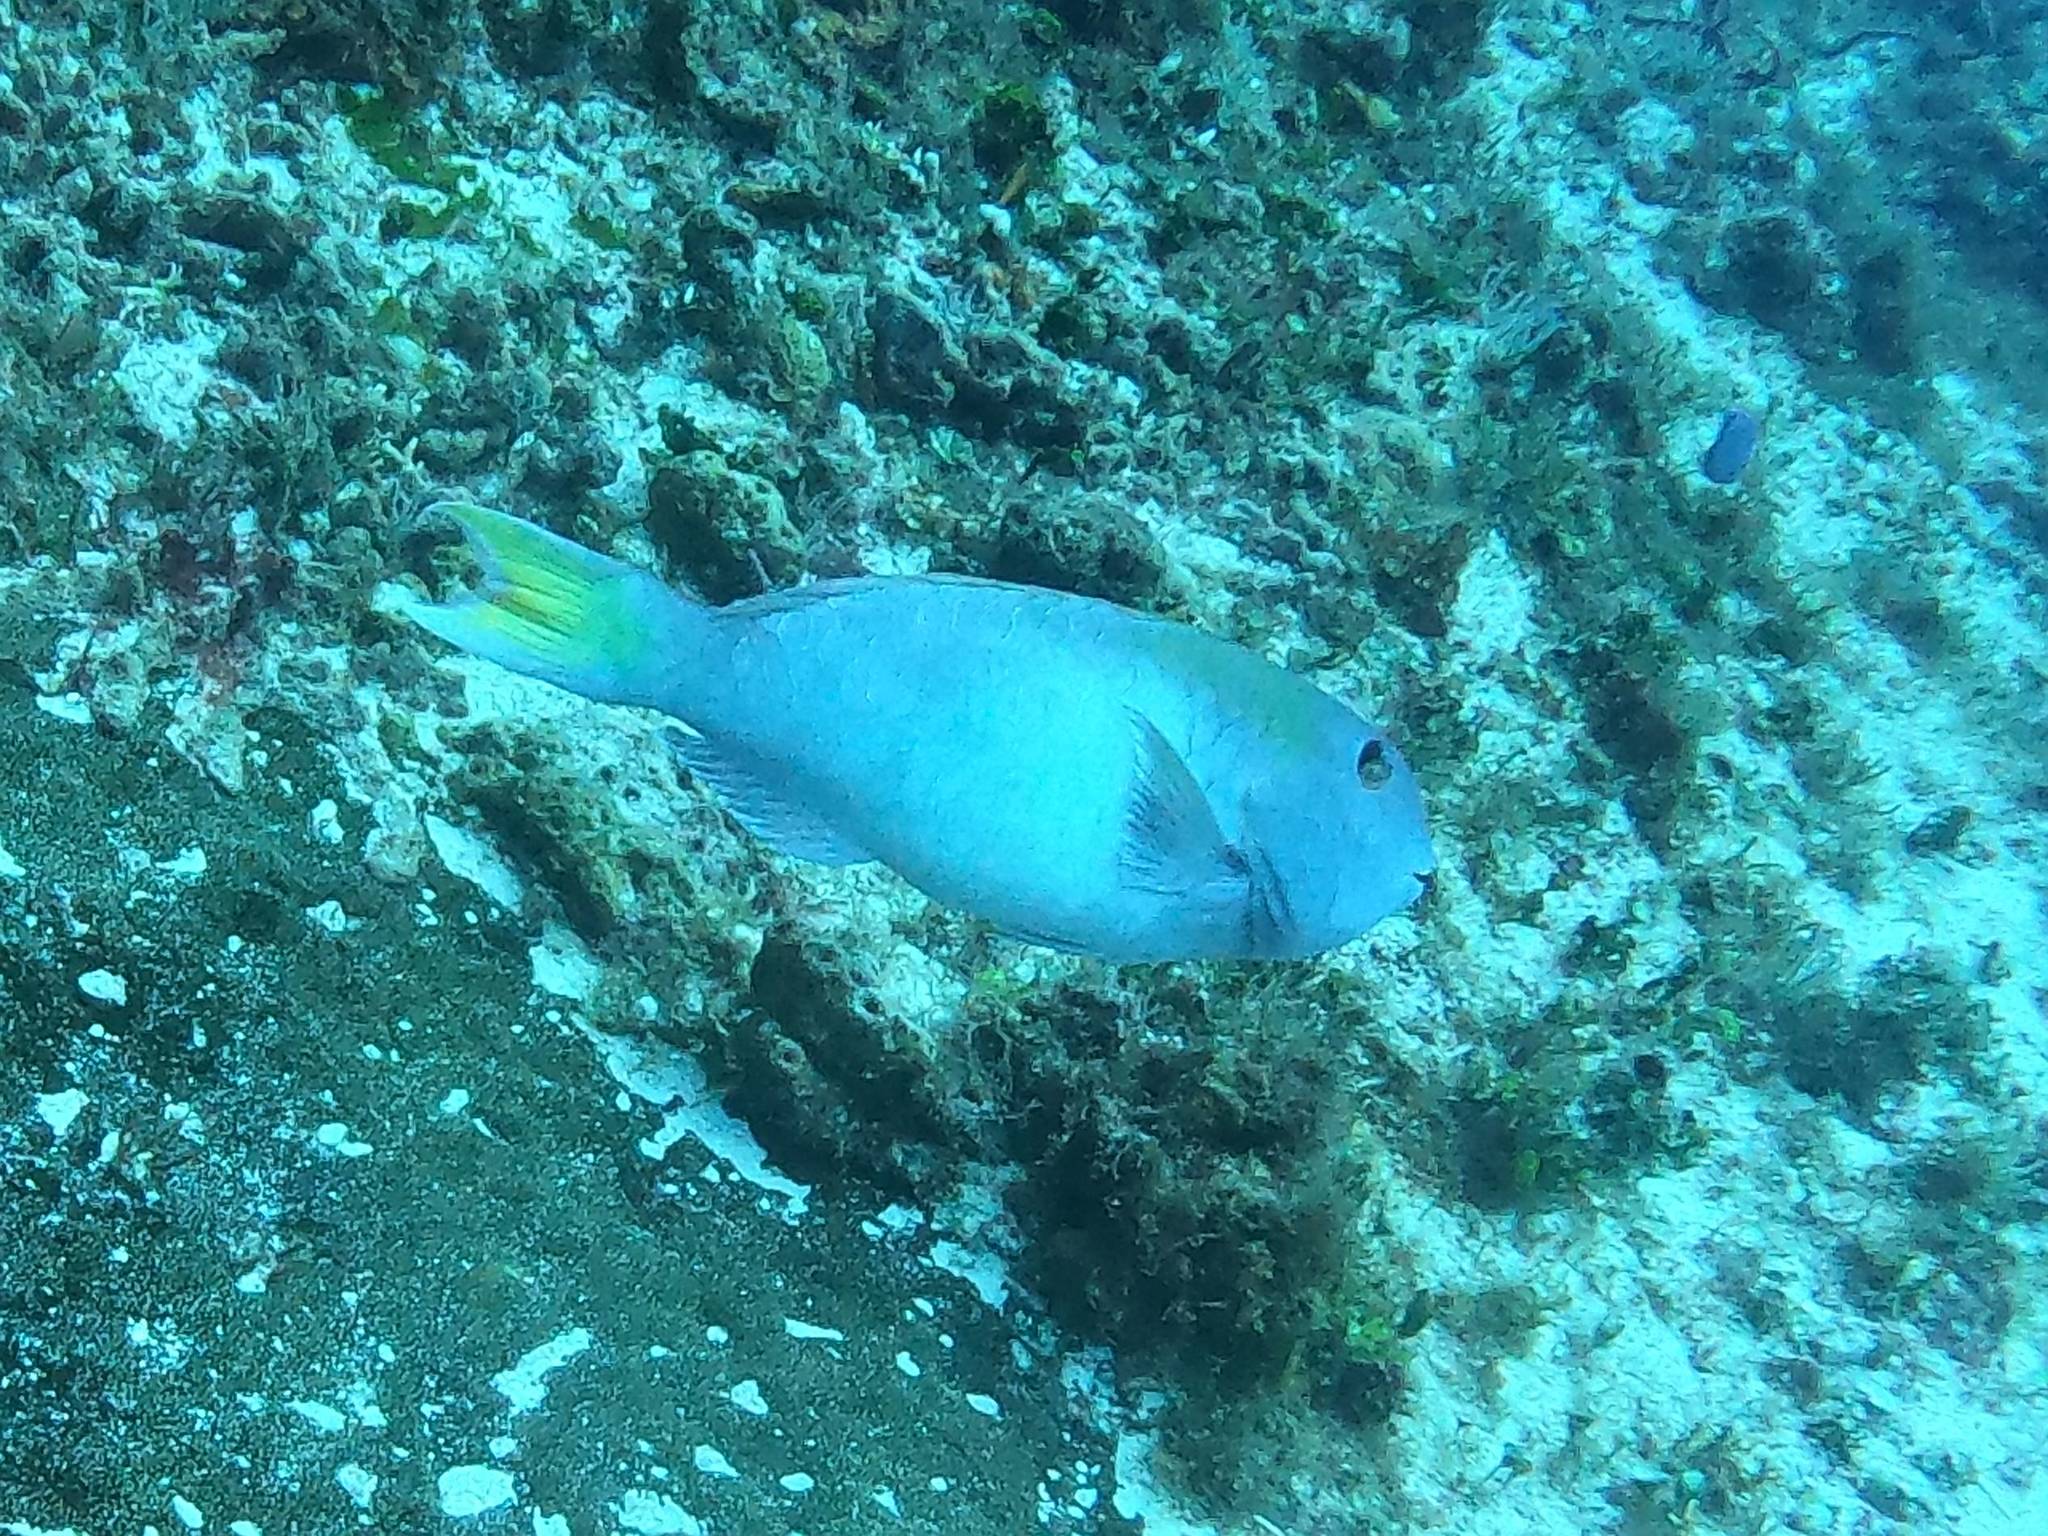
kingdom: Animalia
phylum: Chordata
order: Perciformes
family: Scaridae
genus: Sparisoma
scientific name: Sparisoma rubripinne
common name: Redfin parrotfish
